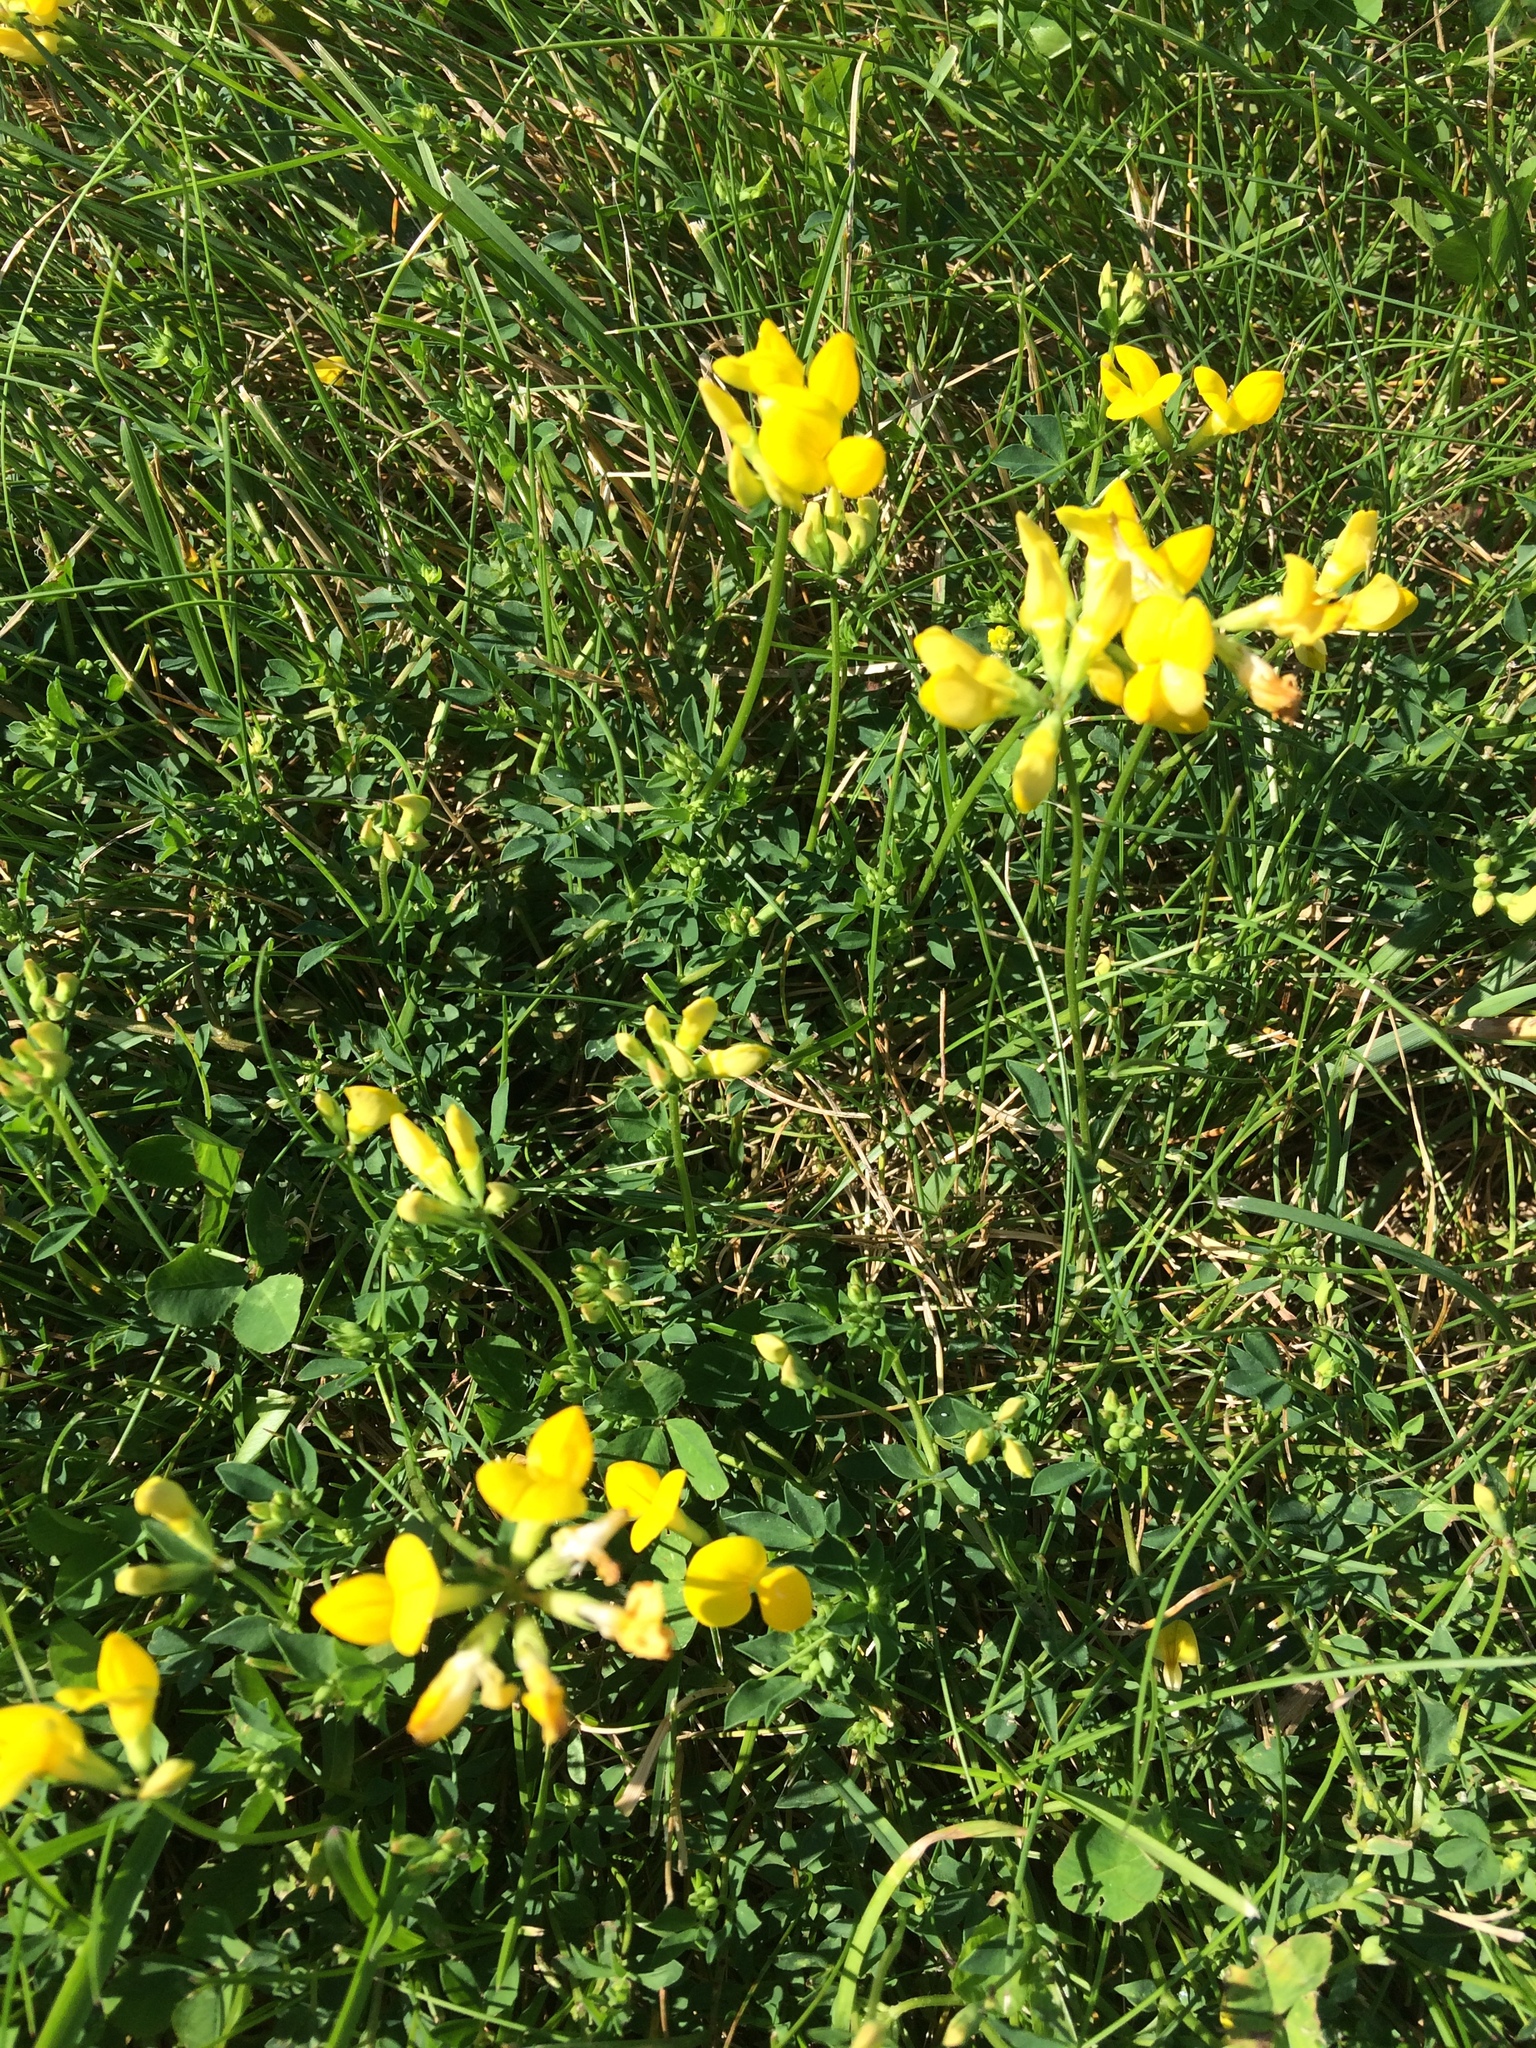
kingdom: Plantae
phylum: Tracheophyta
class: Magnoliopsida
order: Fabales
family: Fabaceae
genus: Lotus
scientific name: Lotus corniculatus
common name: Common bird's-foot-trefoil
